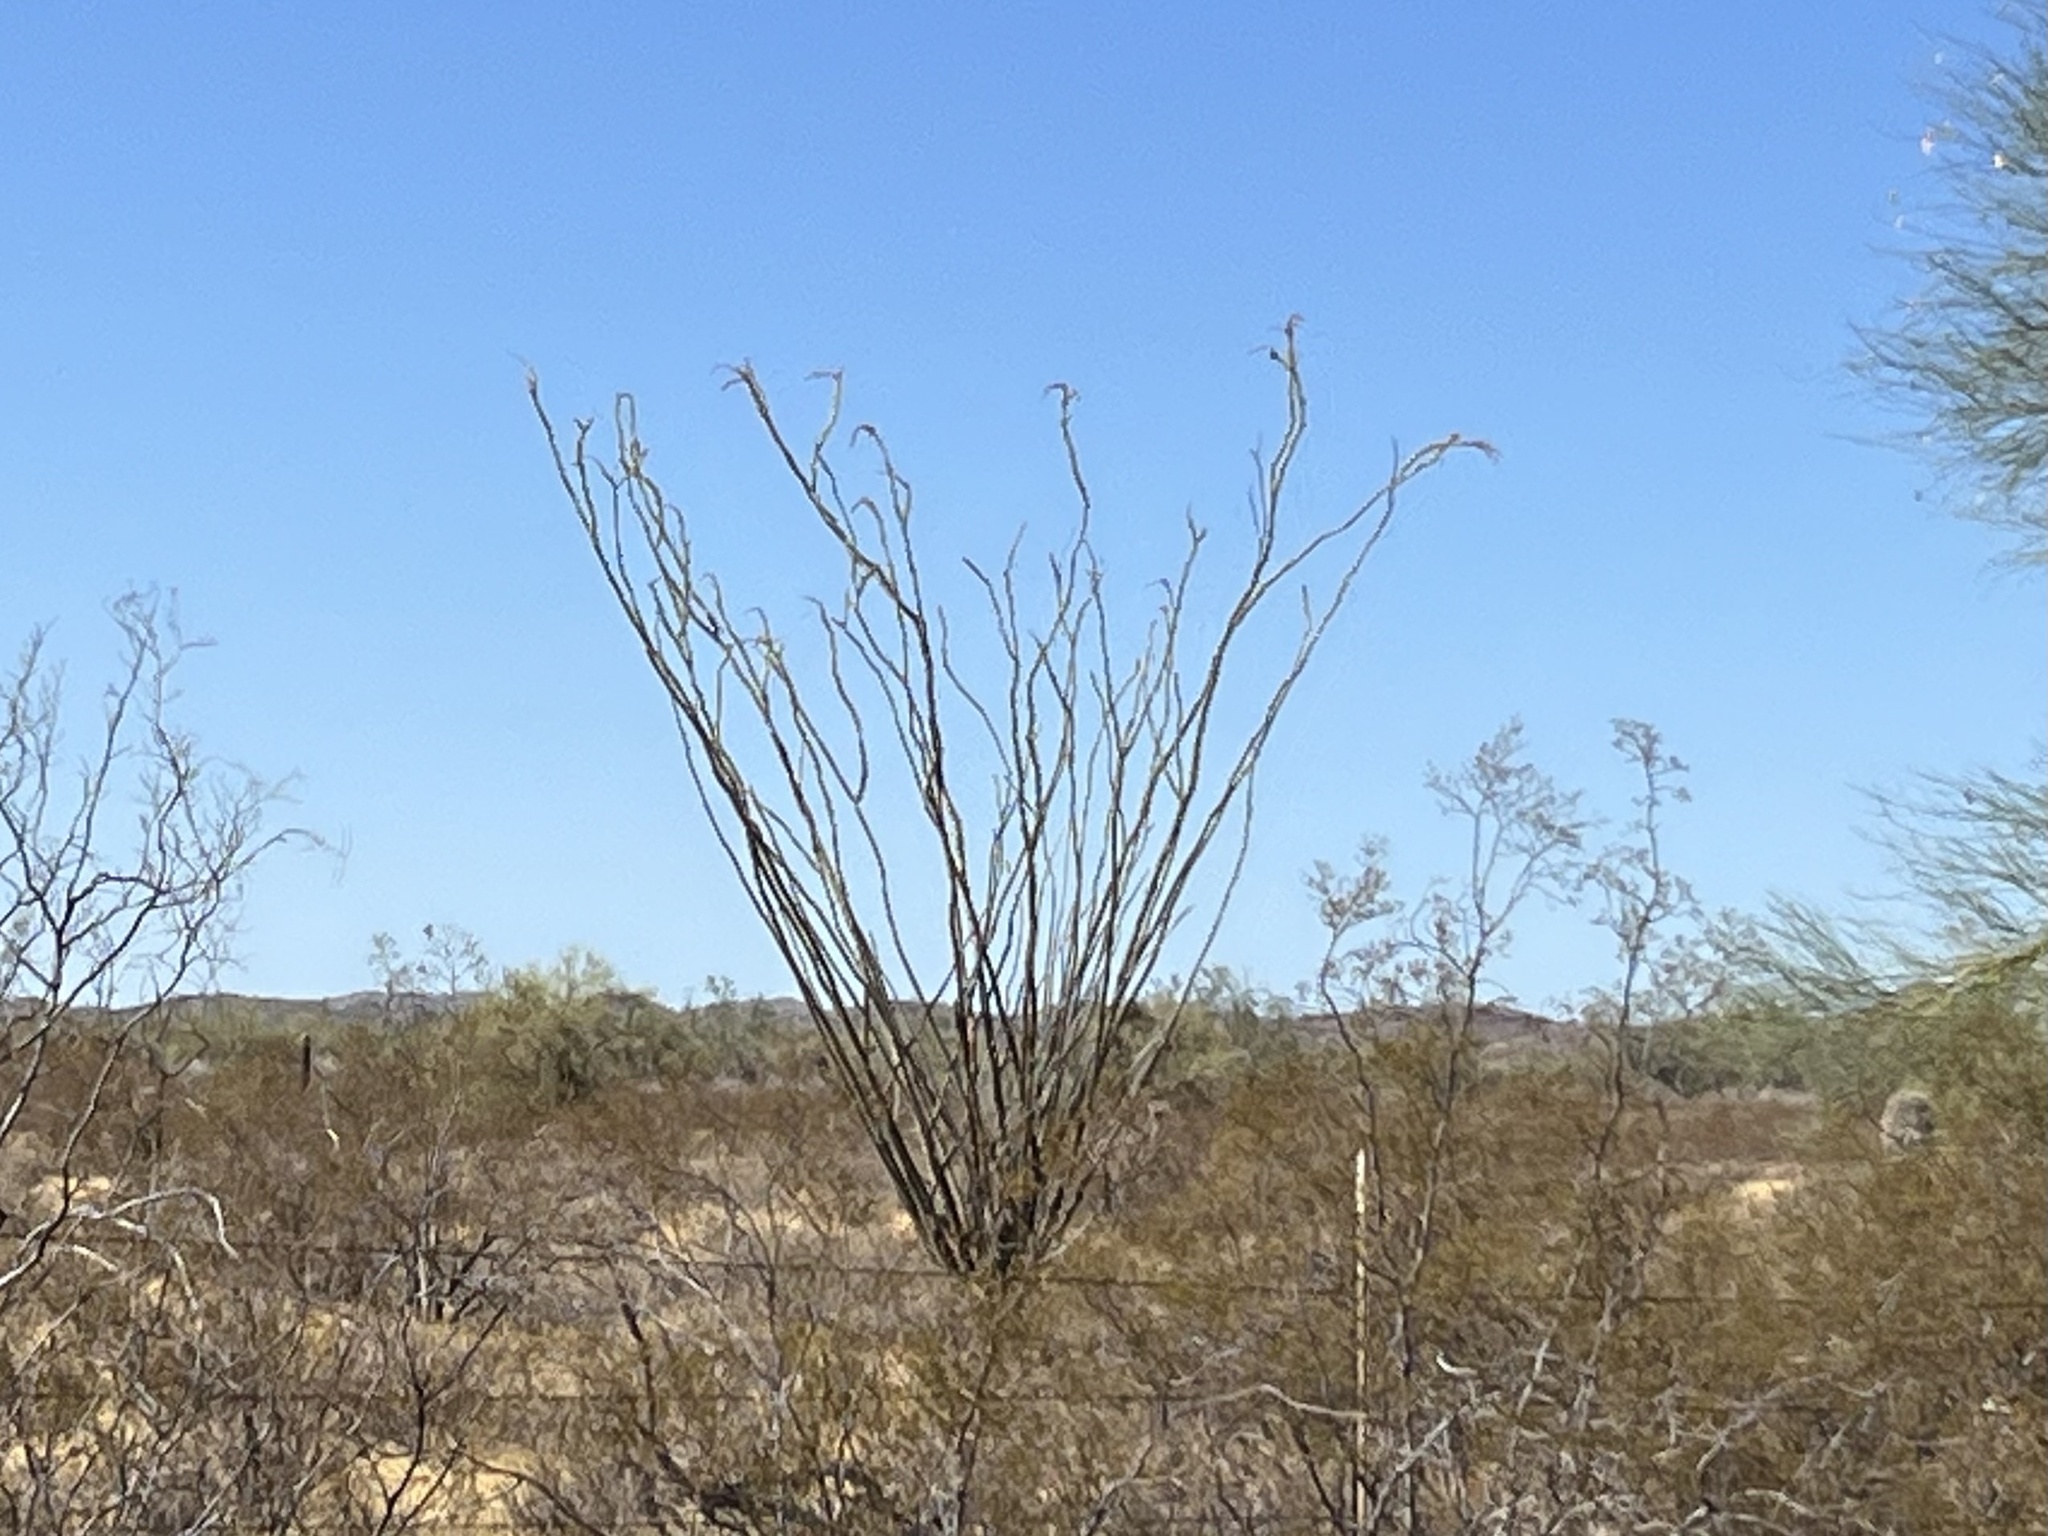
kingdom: Plantae
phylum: Tracheophyta
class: Magnoliopsida
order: Ericales
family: Fouquieriaceae
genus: Fouquieria
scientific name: Fouquieria splendens
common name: Vine-cactus
